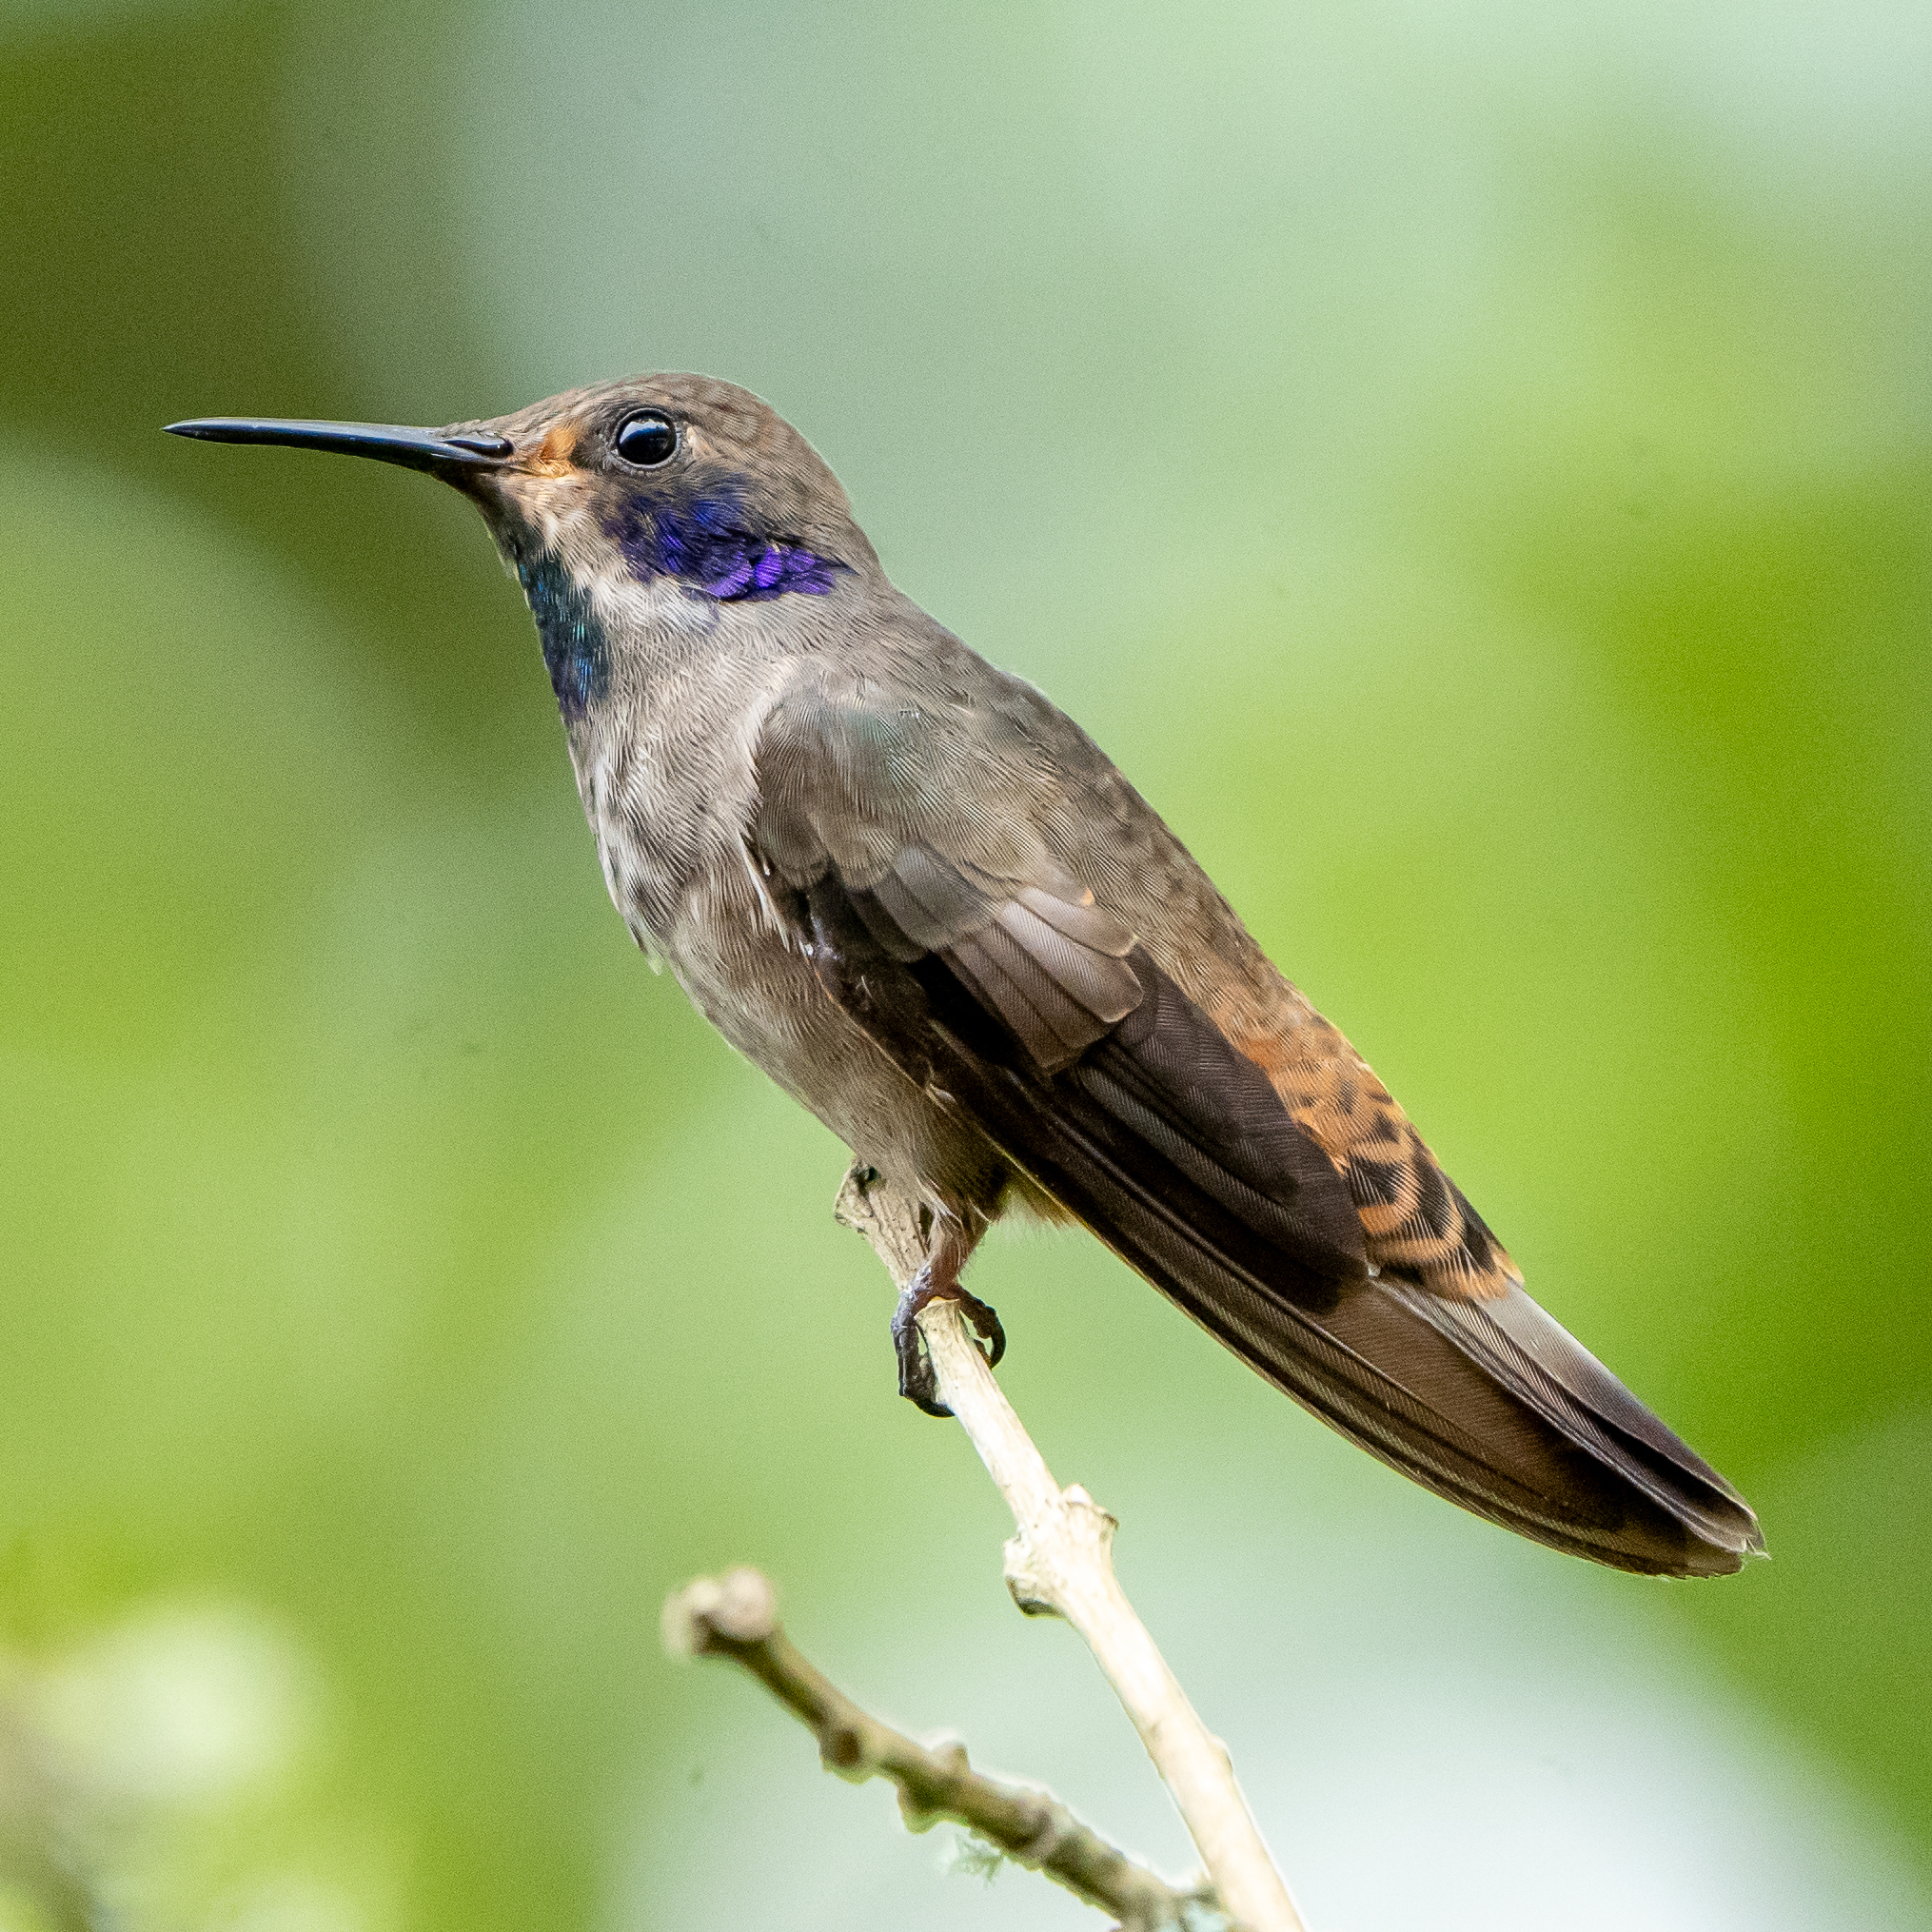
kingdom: Animalia
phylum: Chordata
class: Aves
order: Apodiformes
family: Trochilidae
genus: Colibri
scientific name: Colibri delphinae
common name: Brown violetear
